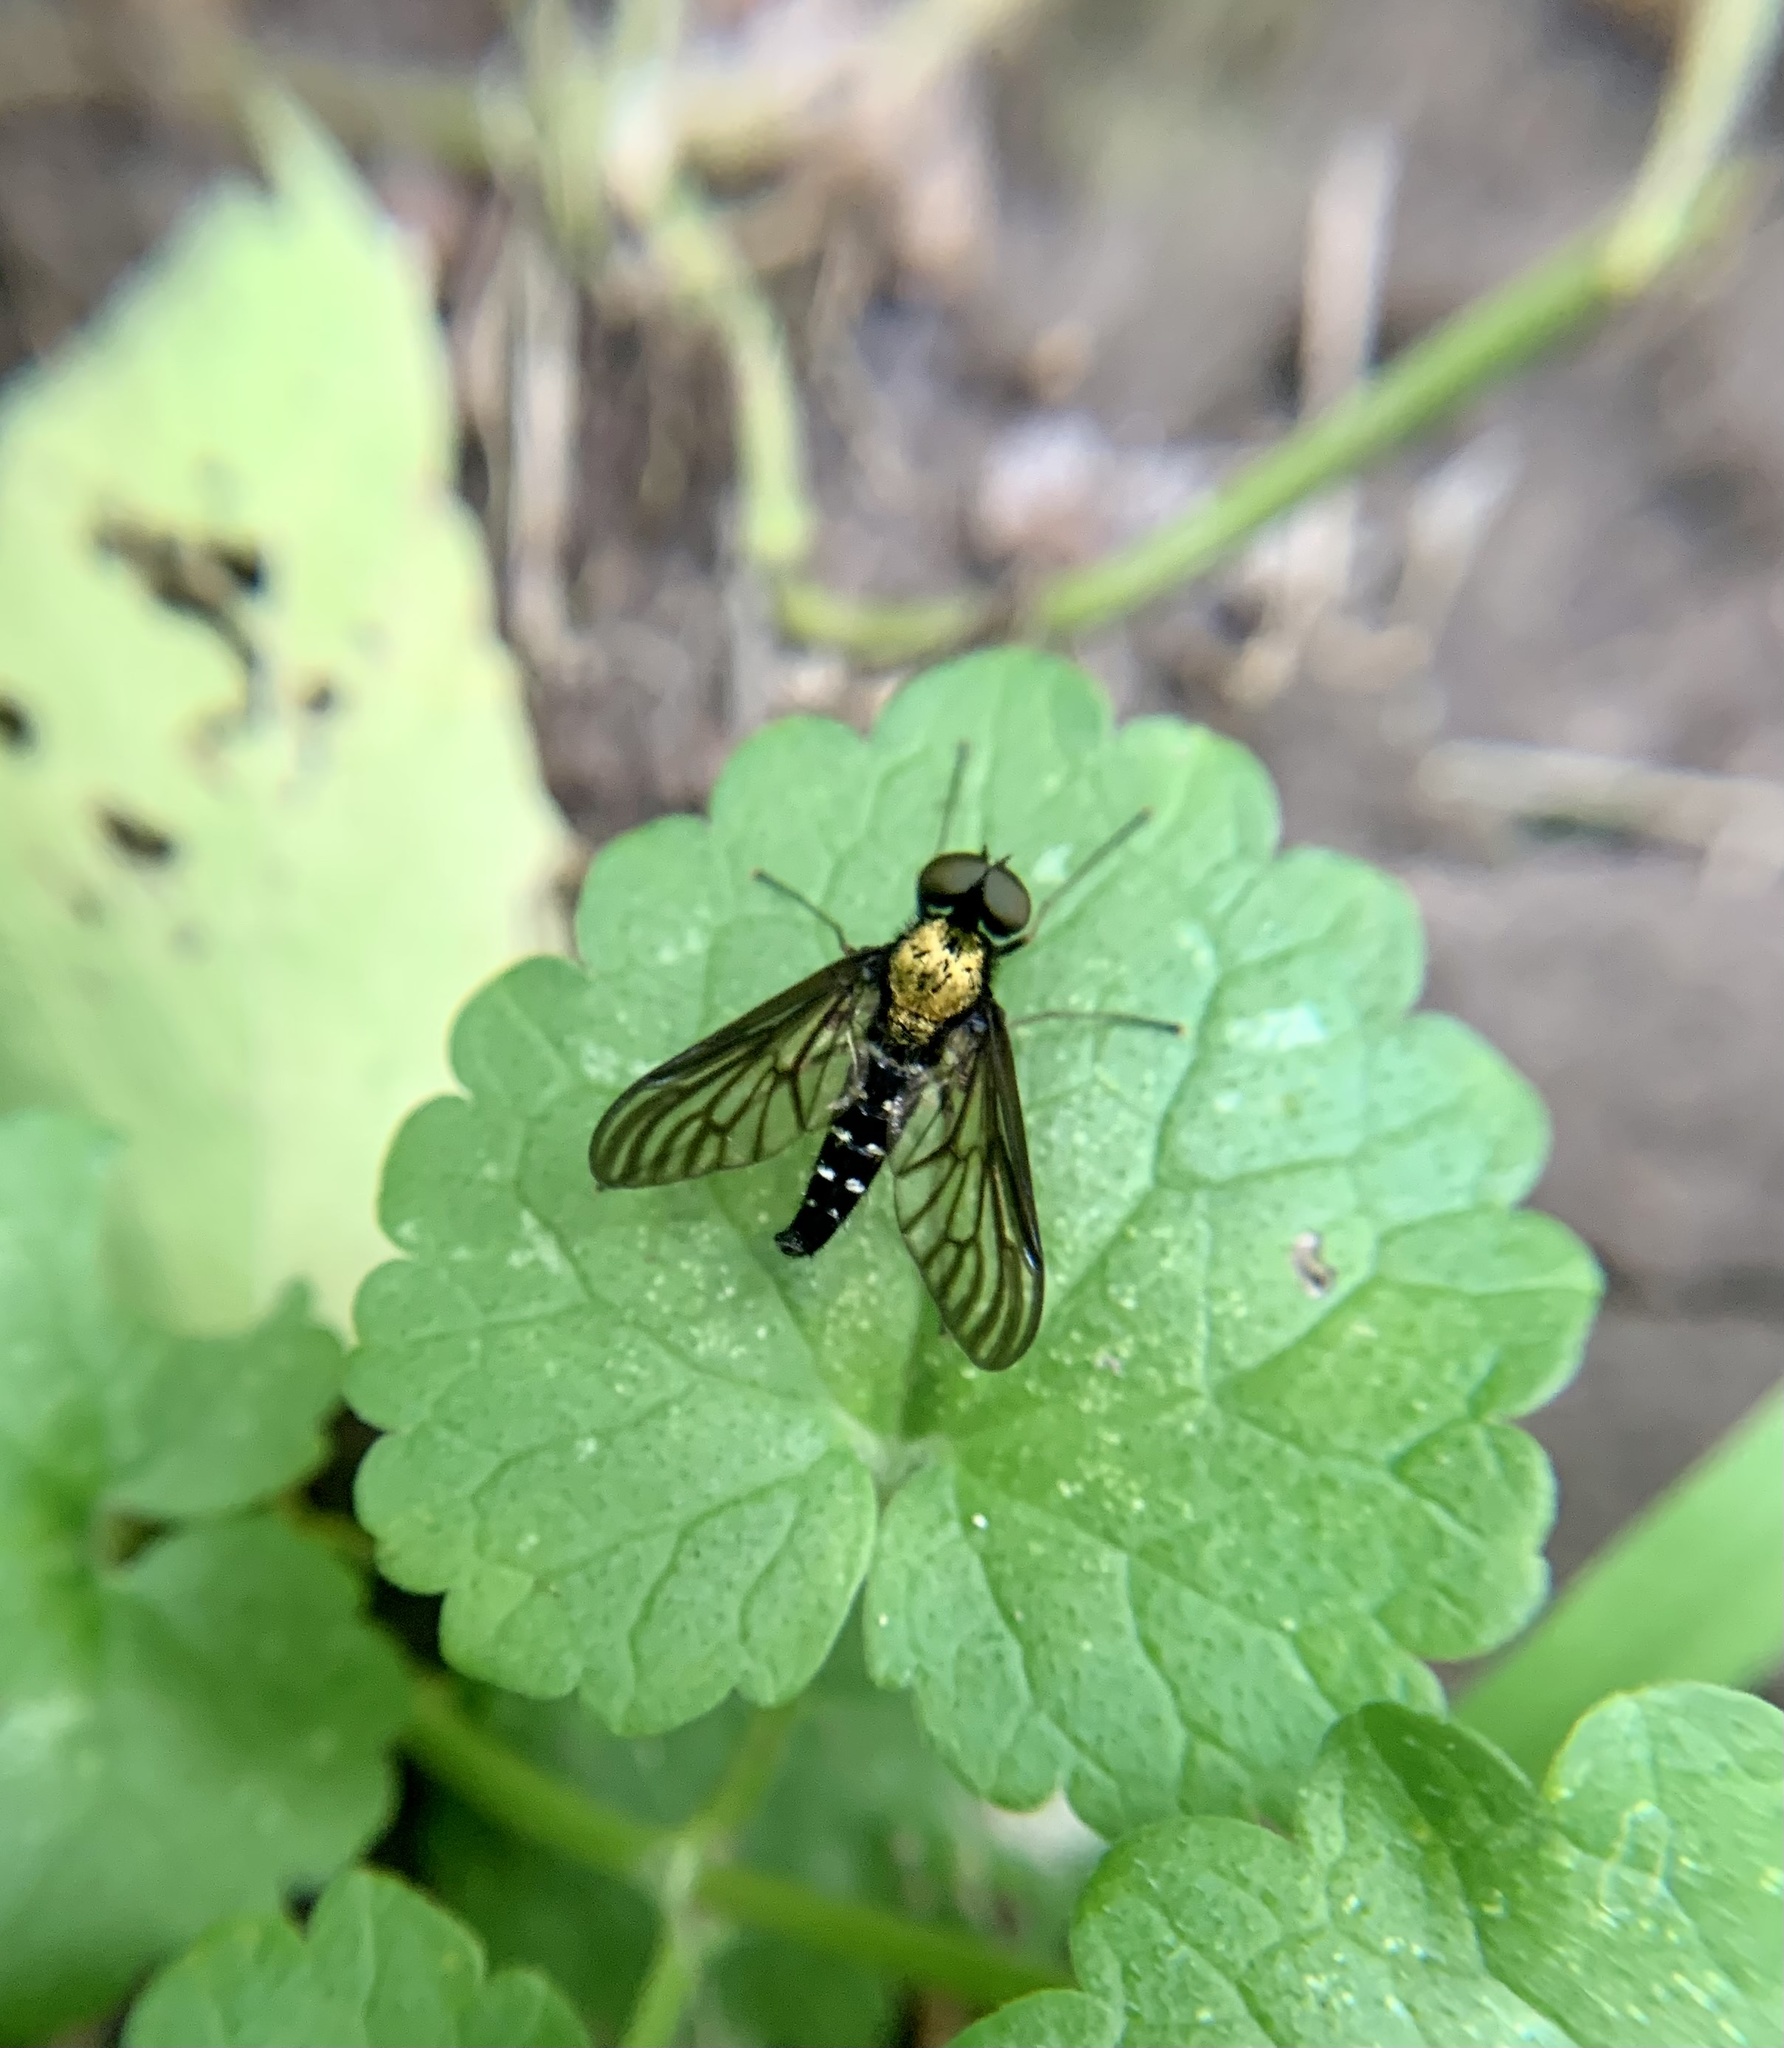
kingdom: Animalia
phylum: Arthropoda
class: Insecta
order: Diptera
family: Rhagionidae
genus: Chrysopilus
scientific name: Chrysopilus thoracicus
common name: Golden-backed snipe fly
